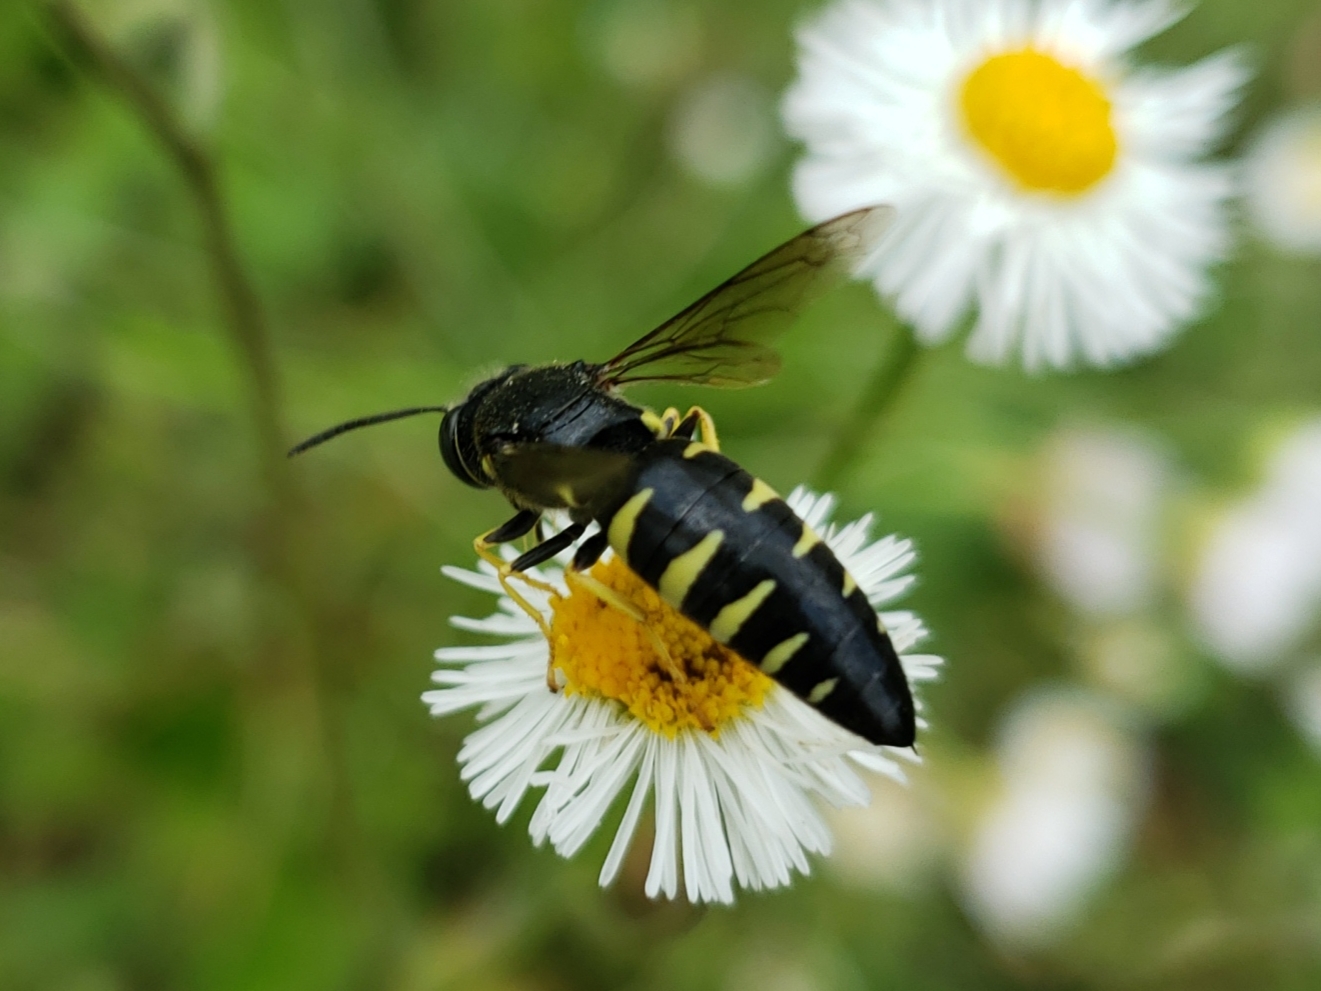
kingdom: Animalia
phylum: Arthropoda
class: Insecta
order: Hymenoptera
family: Crabronidae
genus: Bicyrtes
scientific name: Bicyrtes quadrifasciatus
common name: Four-banded stink bug hunter wasp
